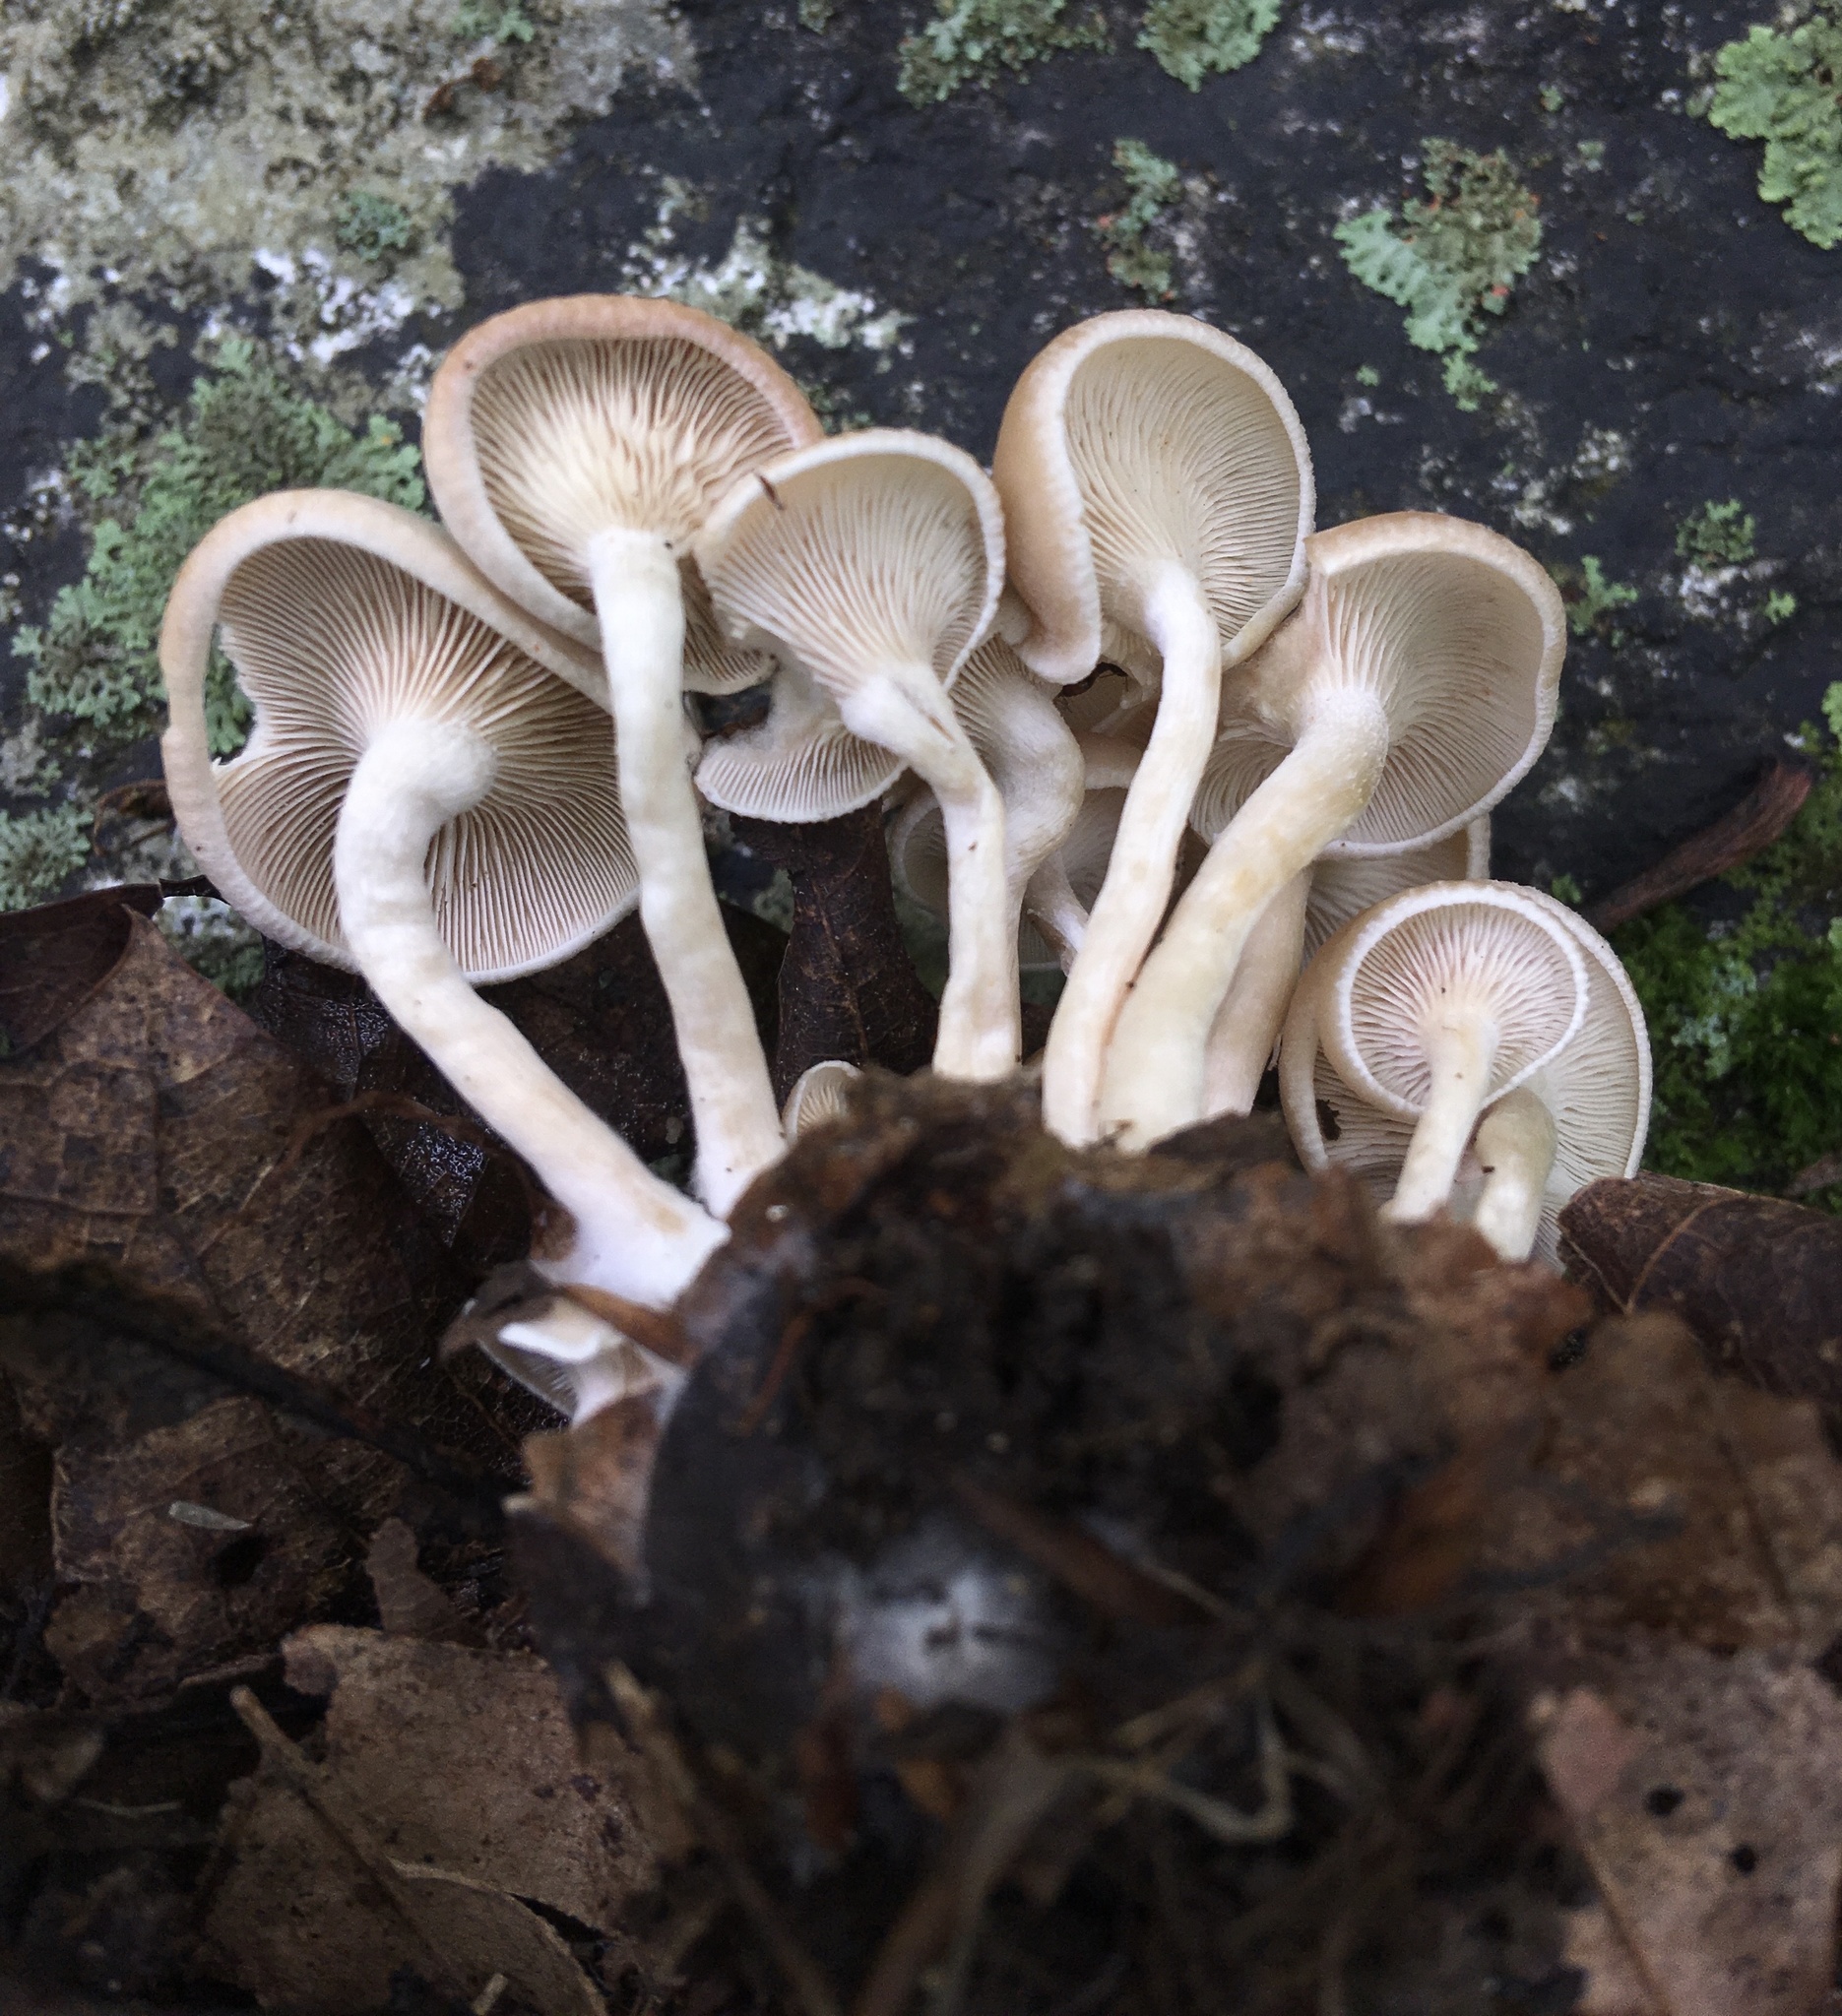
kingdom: Fungi
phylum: Basidiomycota
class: Agaricomycetes
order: Agaricales
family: Tricholomataceae
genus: Clitocybe
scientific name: Clitocybe americana
